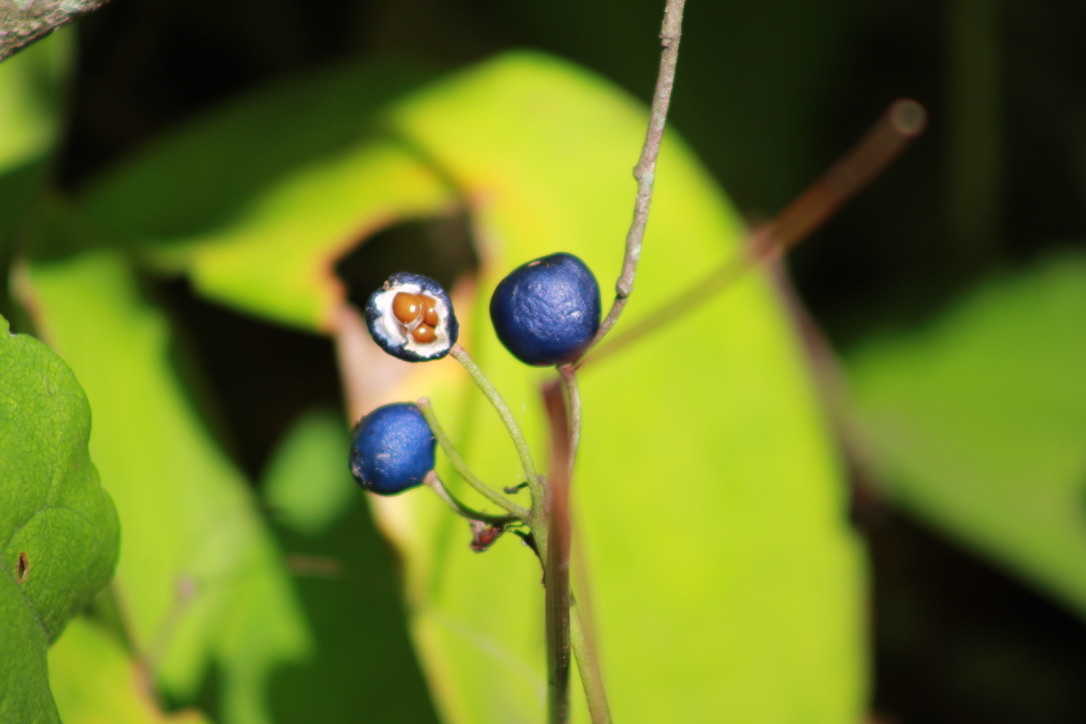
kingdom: Plantae
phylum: Tracheophyta
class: Liliopsida
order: Liliales
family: Liliaceae
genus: Clintonia
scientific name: Clintonia borealis
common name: Yellow clintonia
